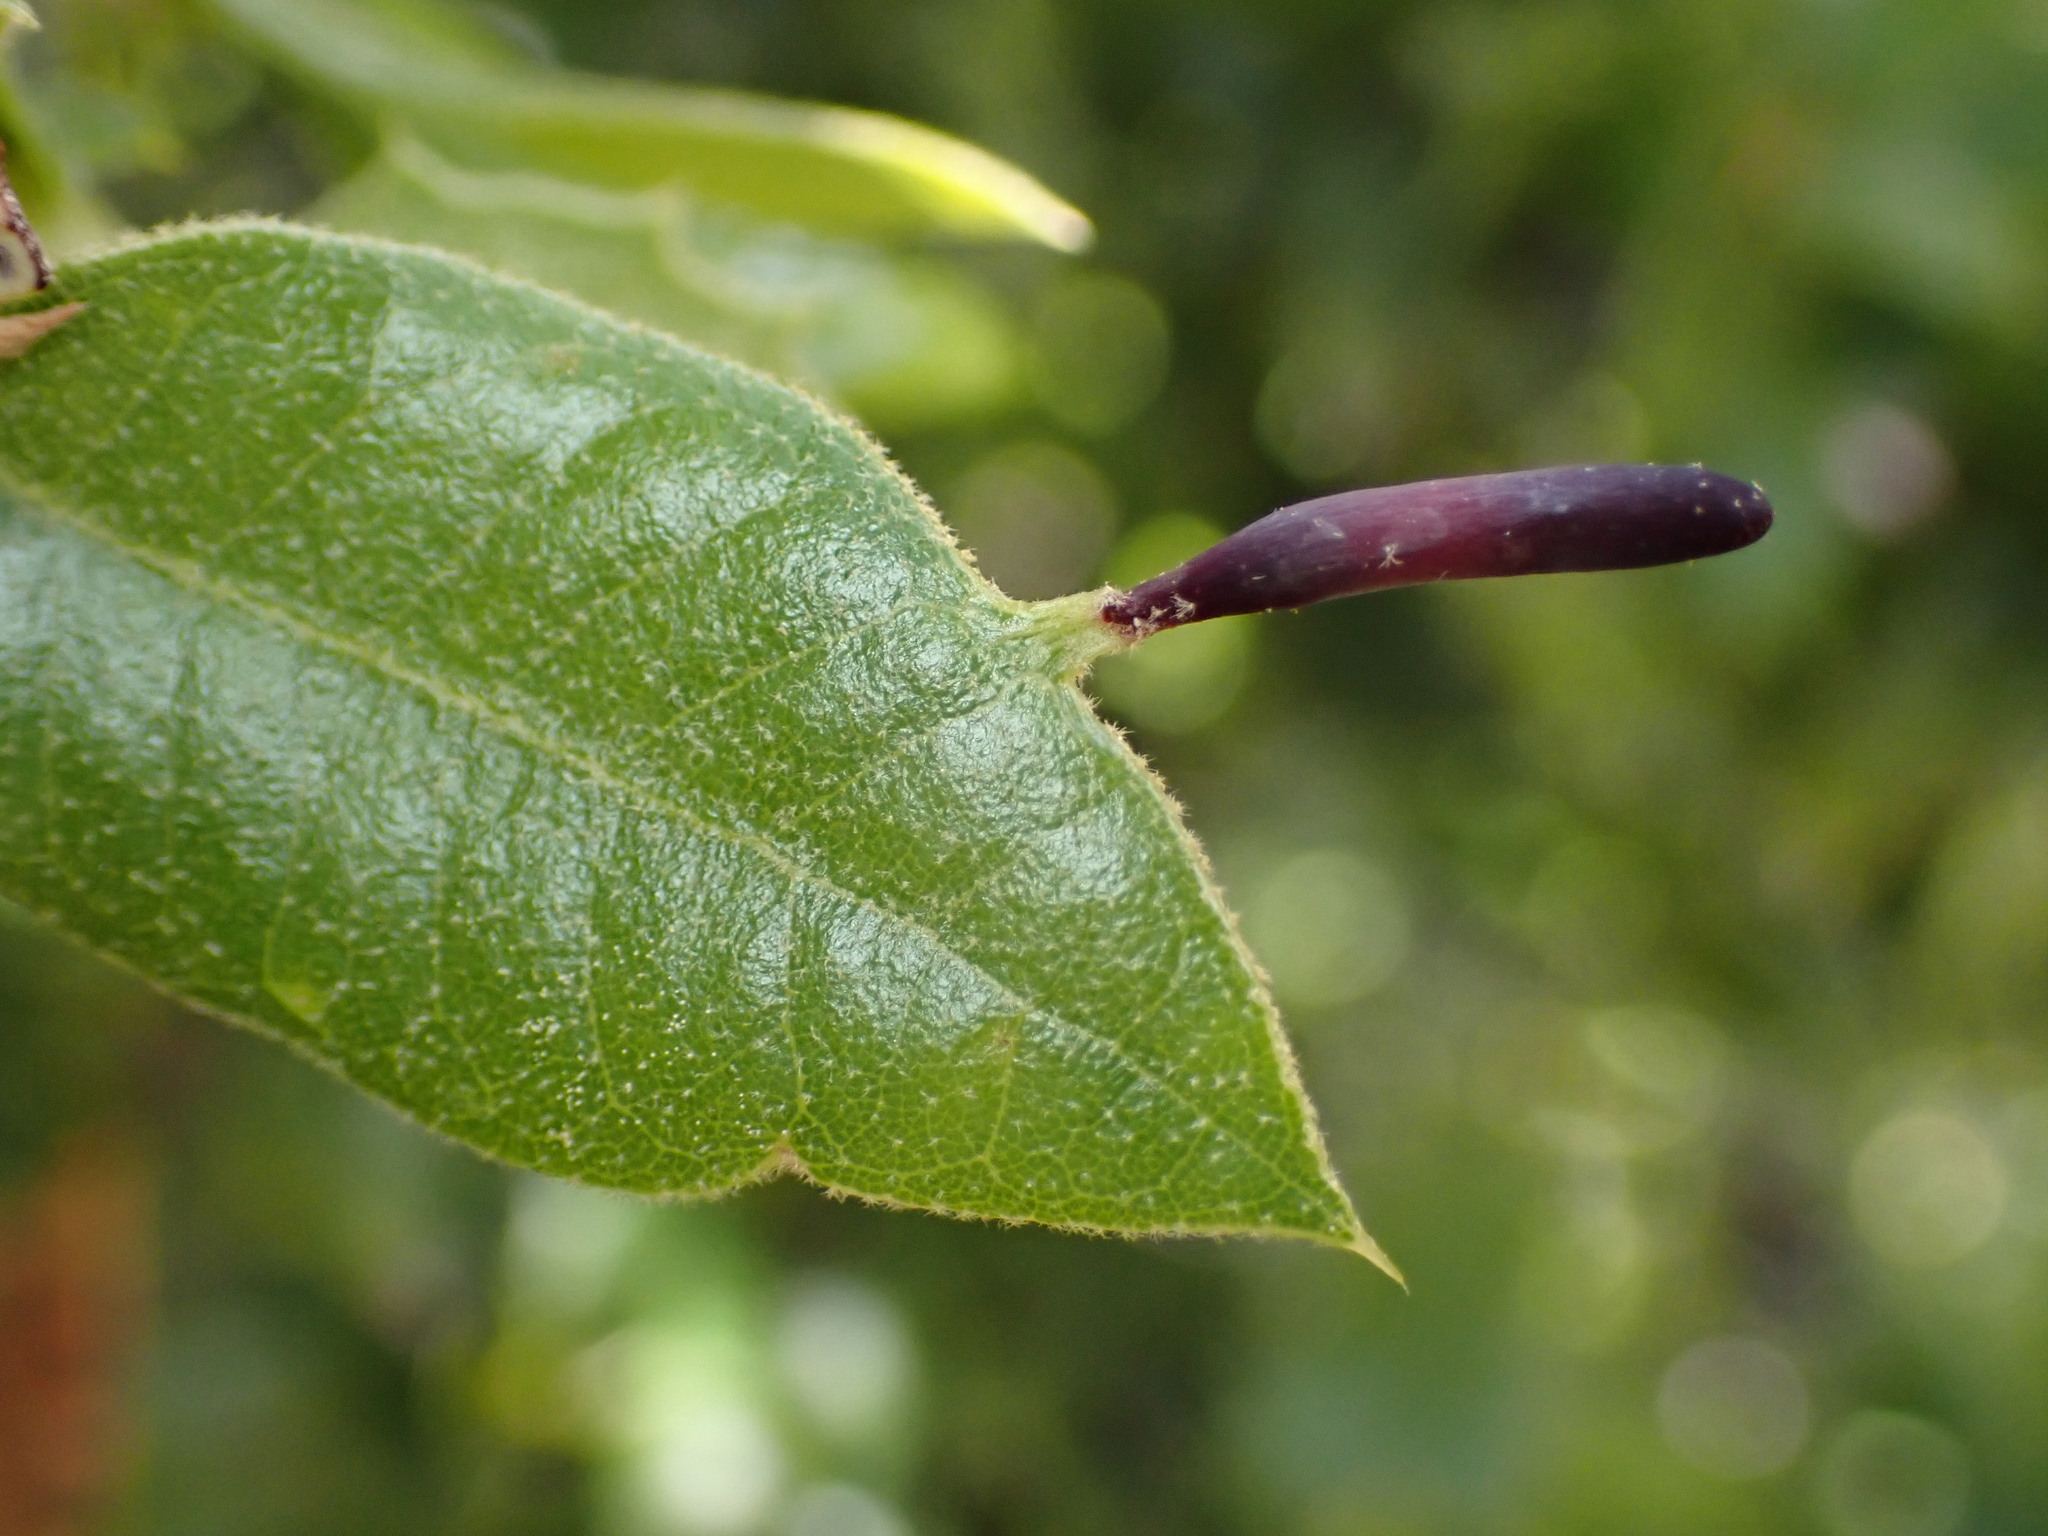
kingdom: Animalia
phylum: Arthropoda
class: Insecta
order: Hymenoptera
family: Cynipidae
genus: Heteroecus
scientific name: Heteroecus
